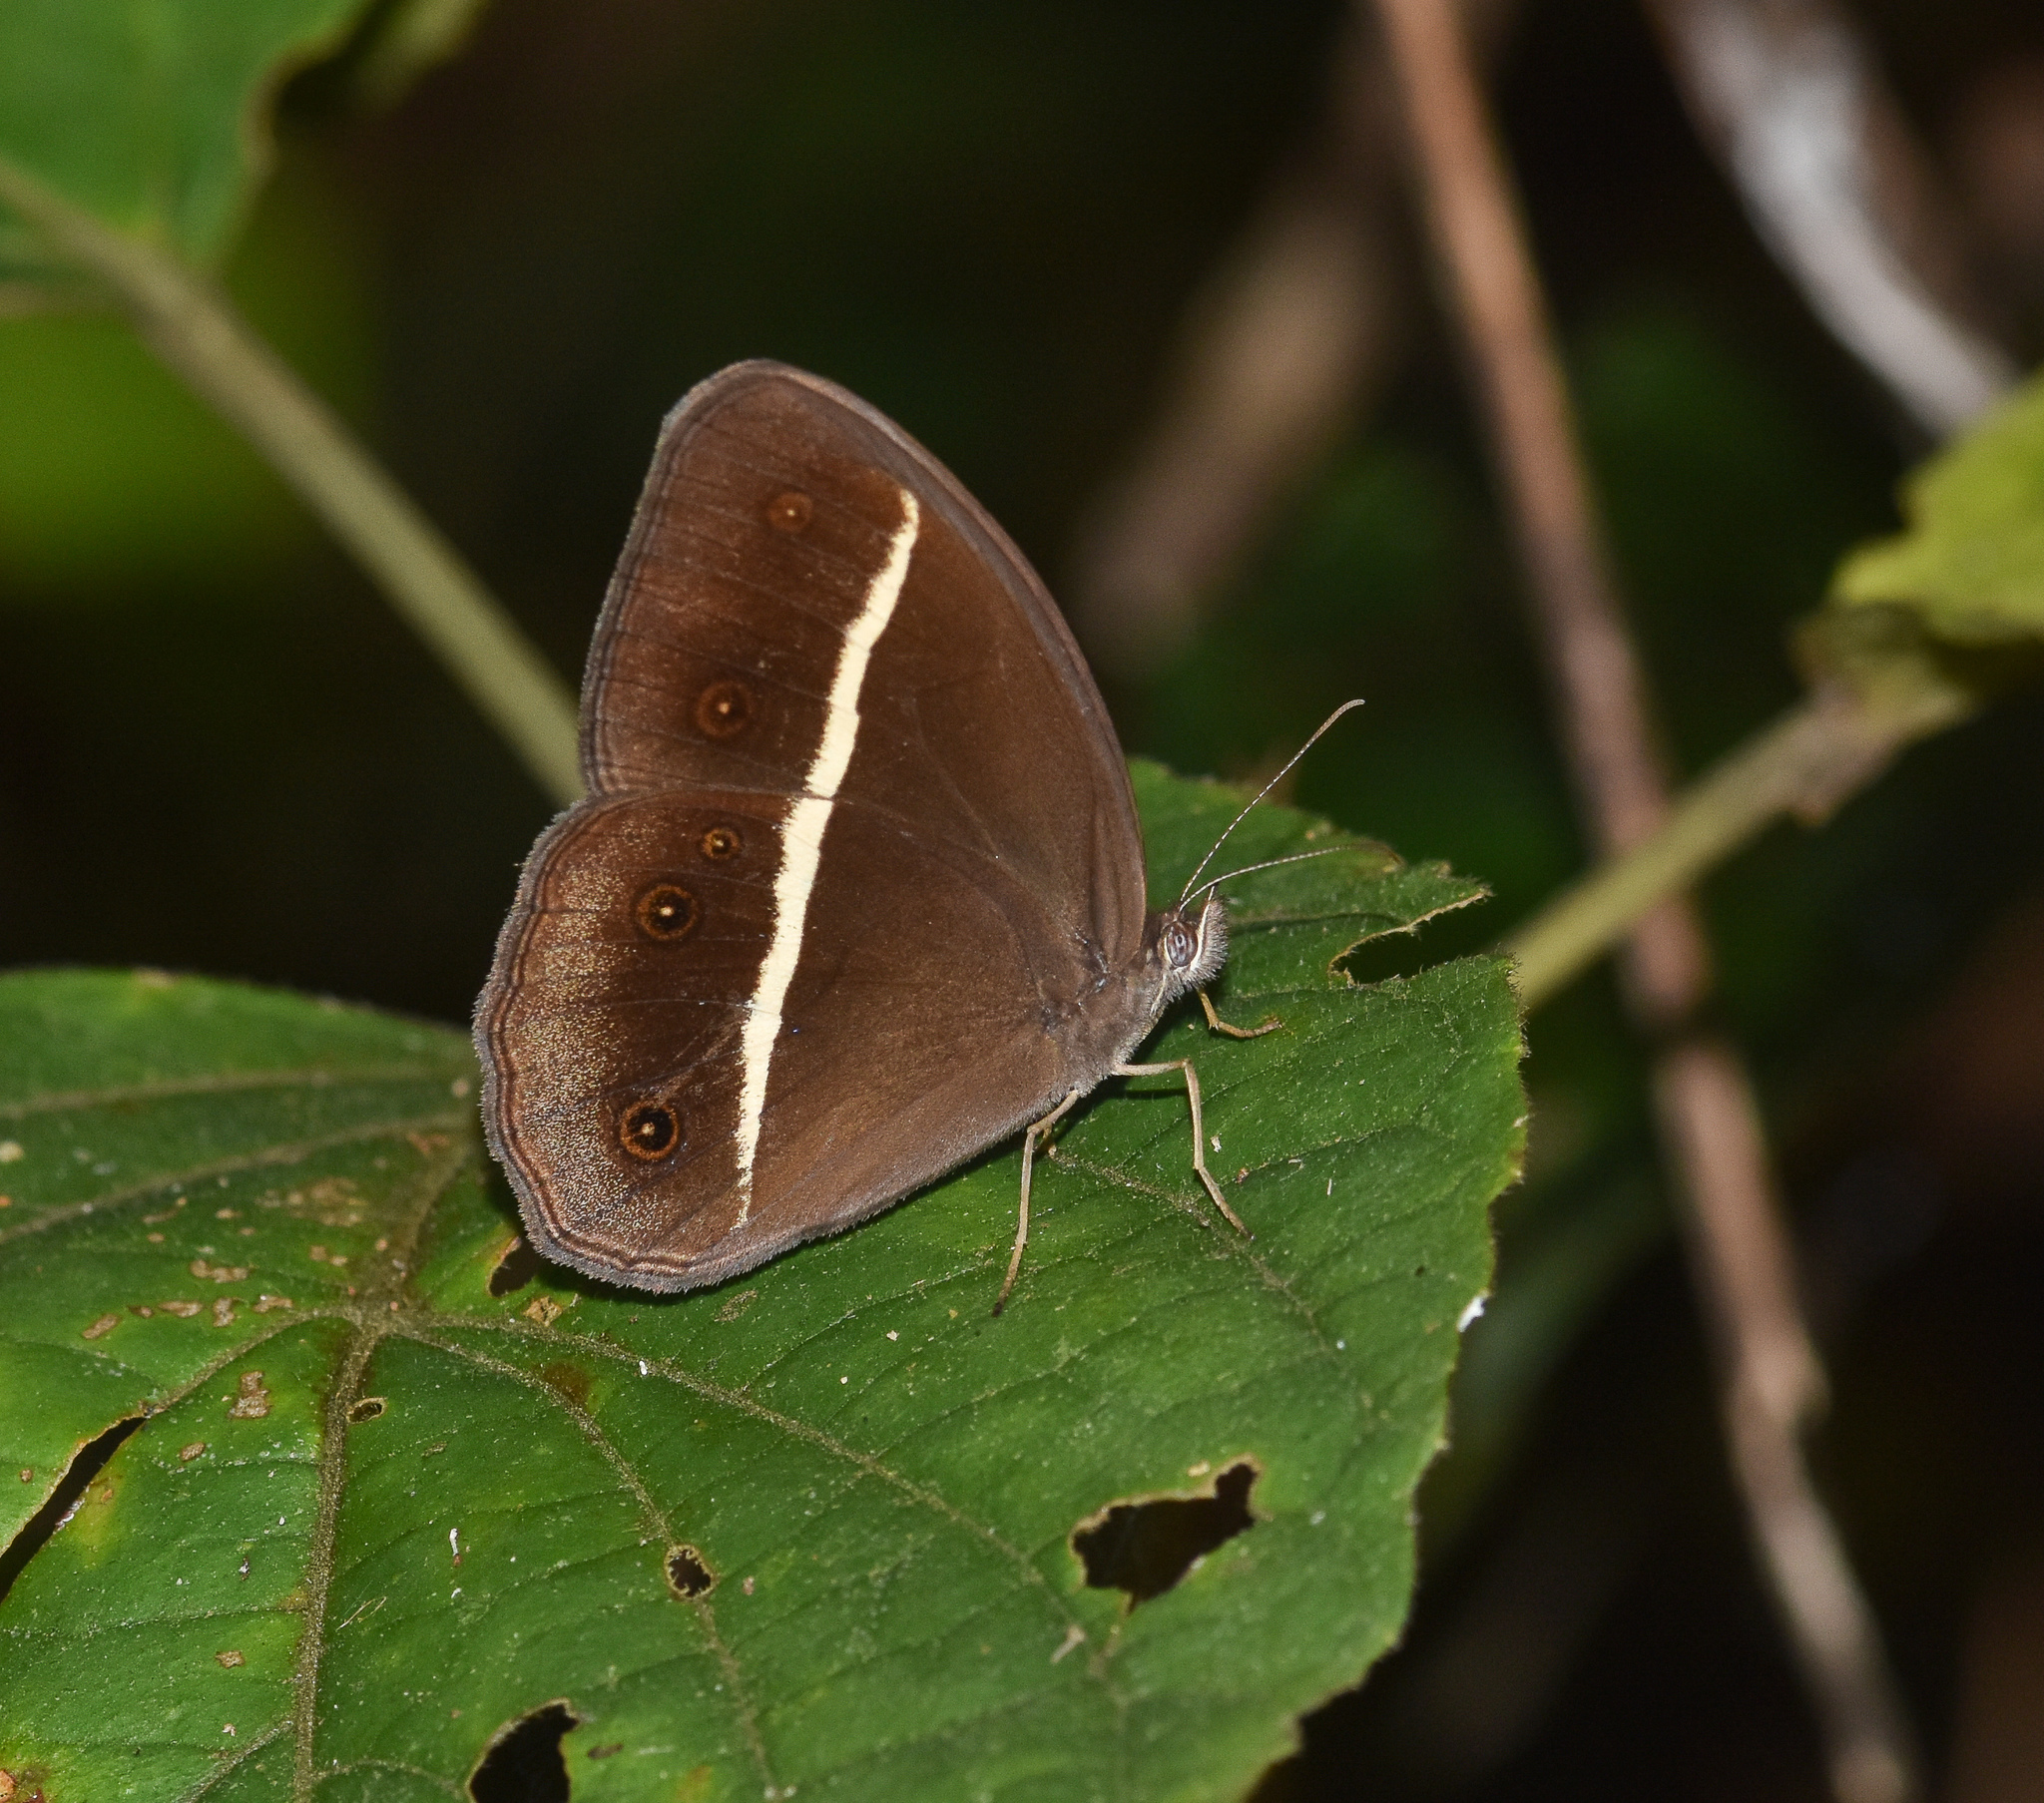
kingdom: Animalia
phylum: Arthropoda
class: Insecta
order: Lepidoptera
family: Nymphalidae
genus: Orsotriaena
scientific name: Orsotriaena medus
